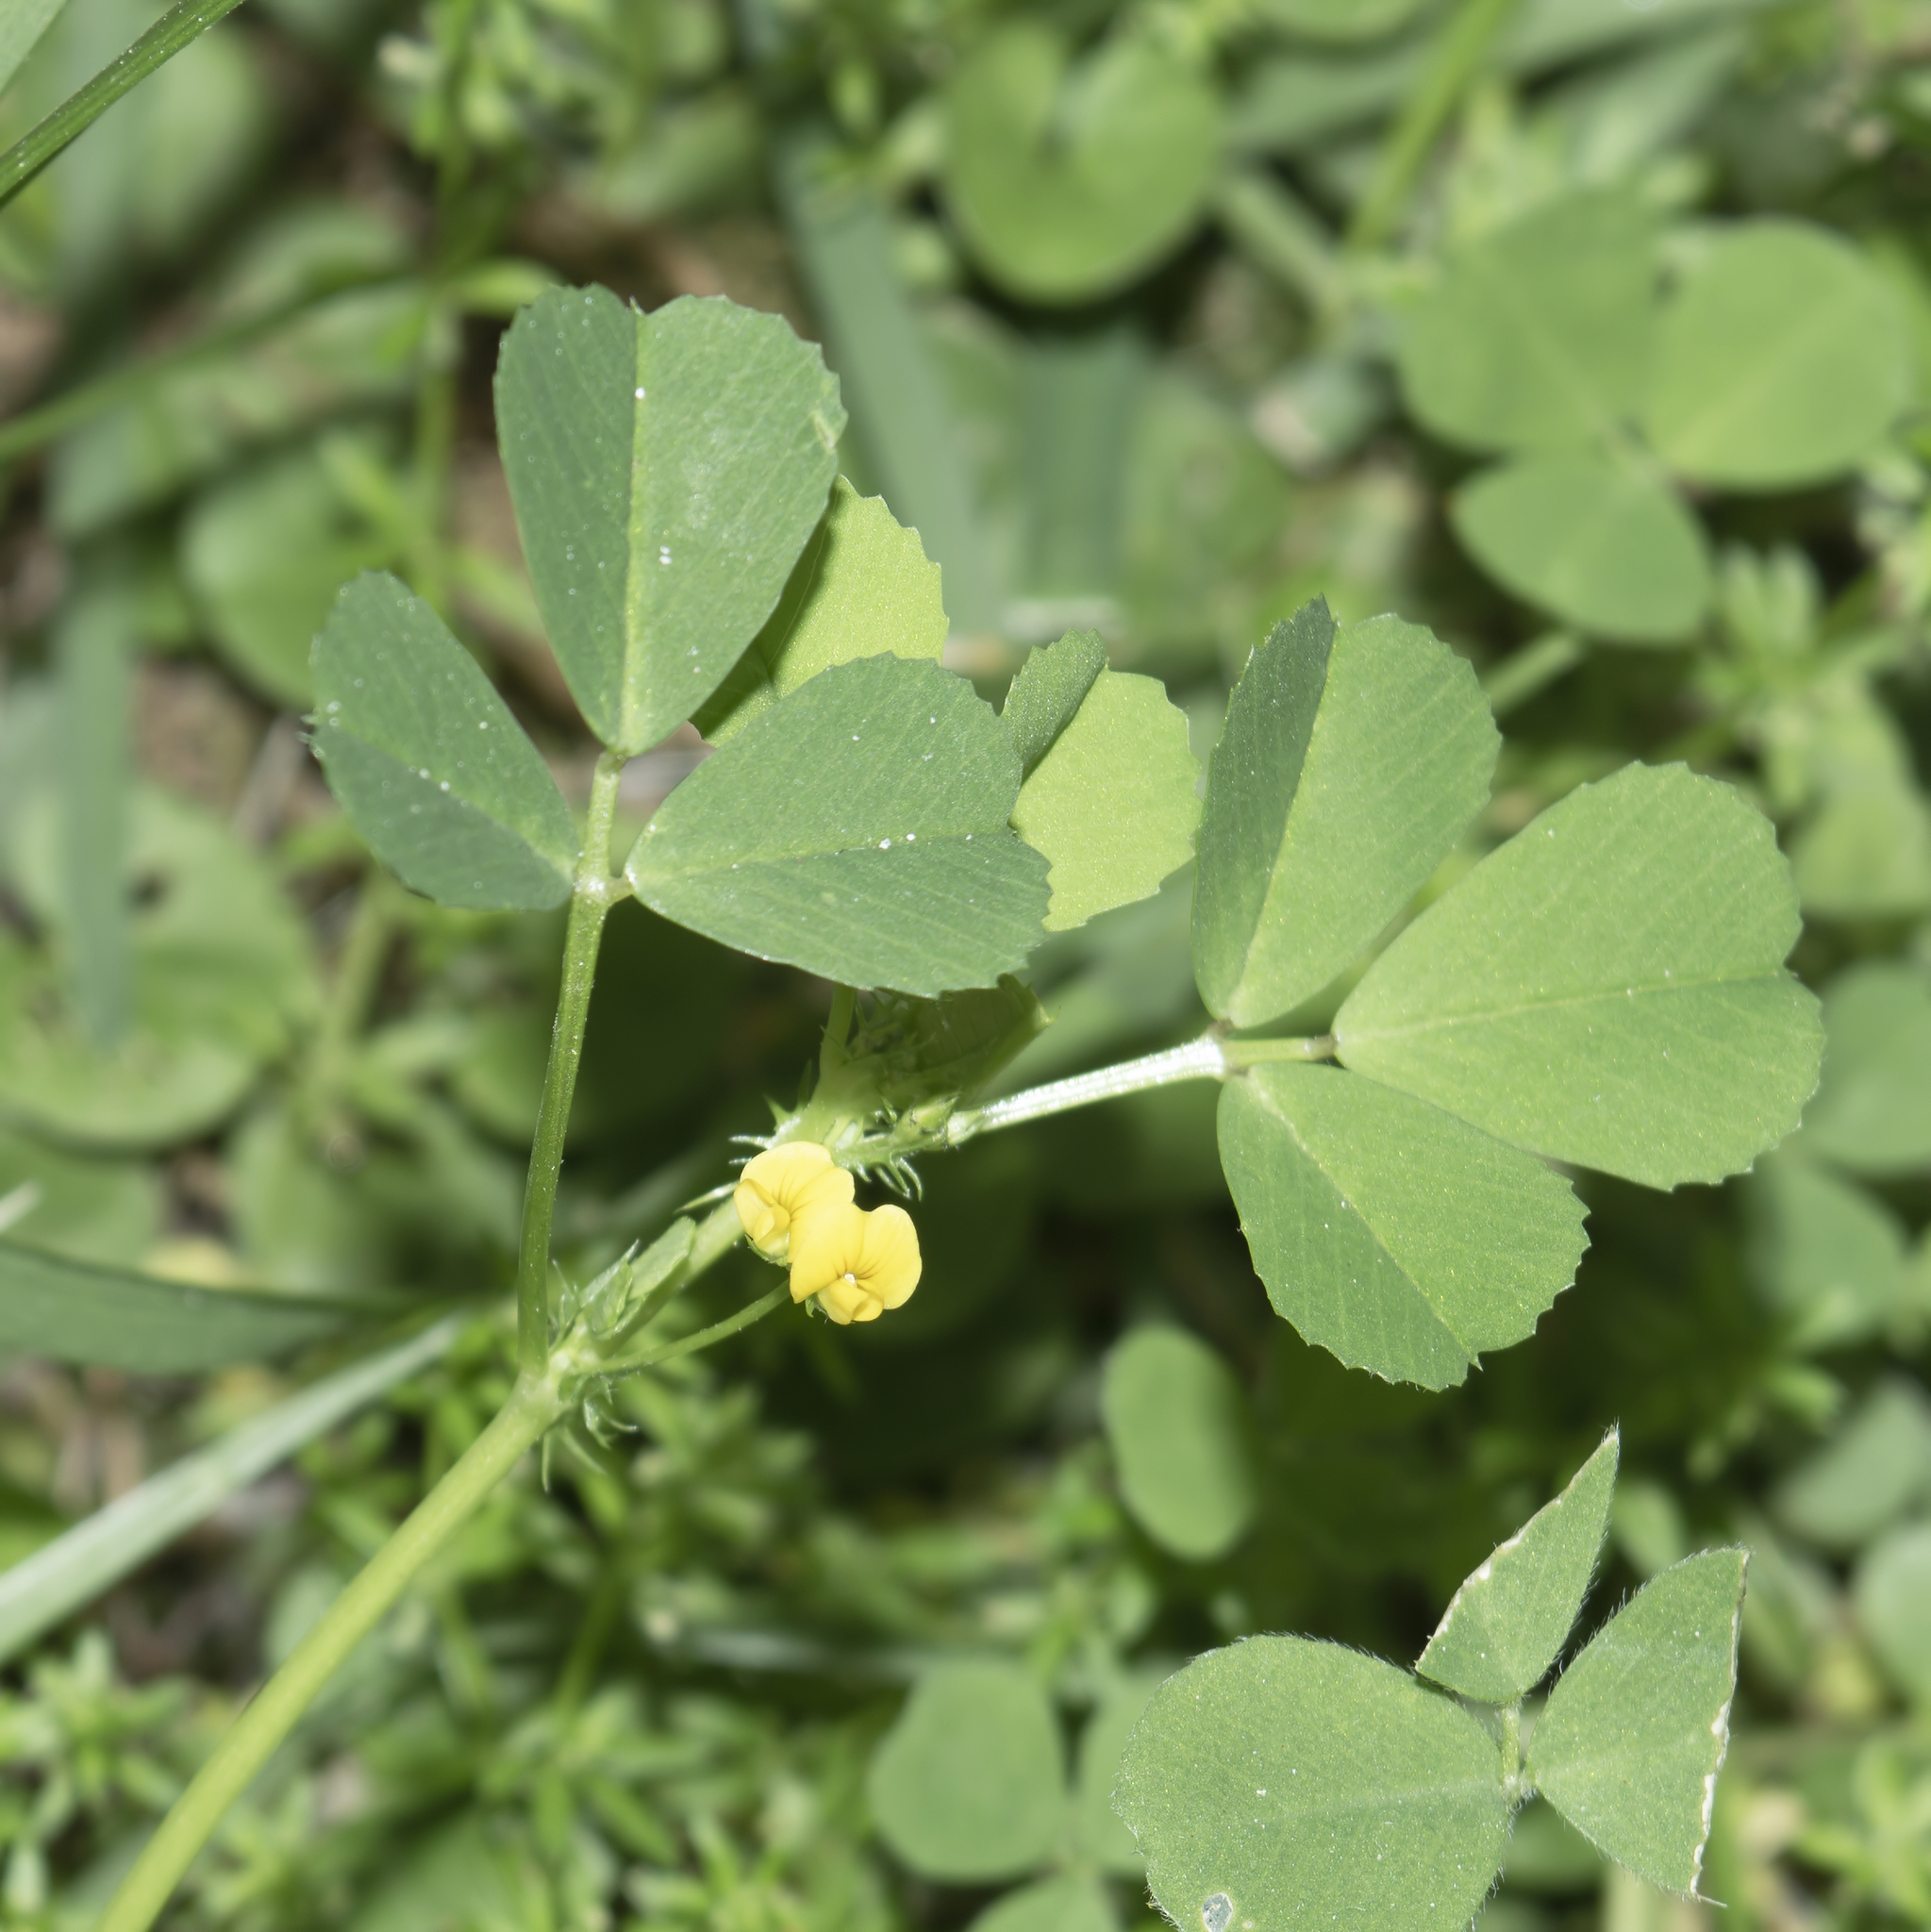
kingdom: Plantae
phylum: Tracheophyta
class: Magnoliopsida
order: Fabales
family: Fabaceae
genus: Medicago
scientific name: Medicago
